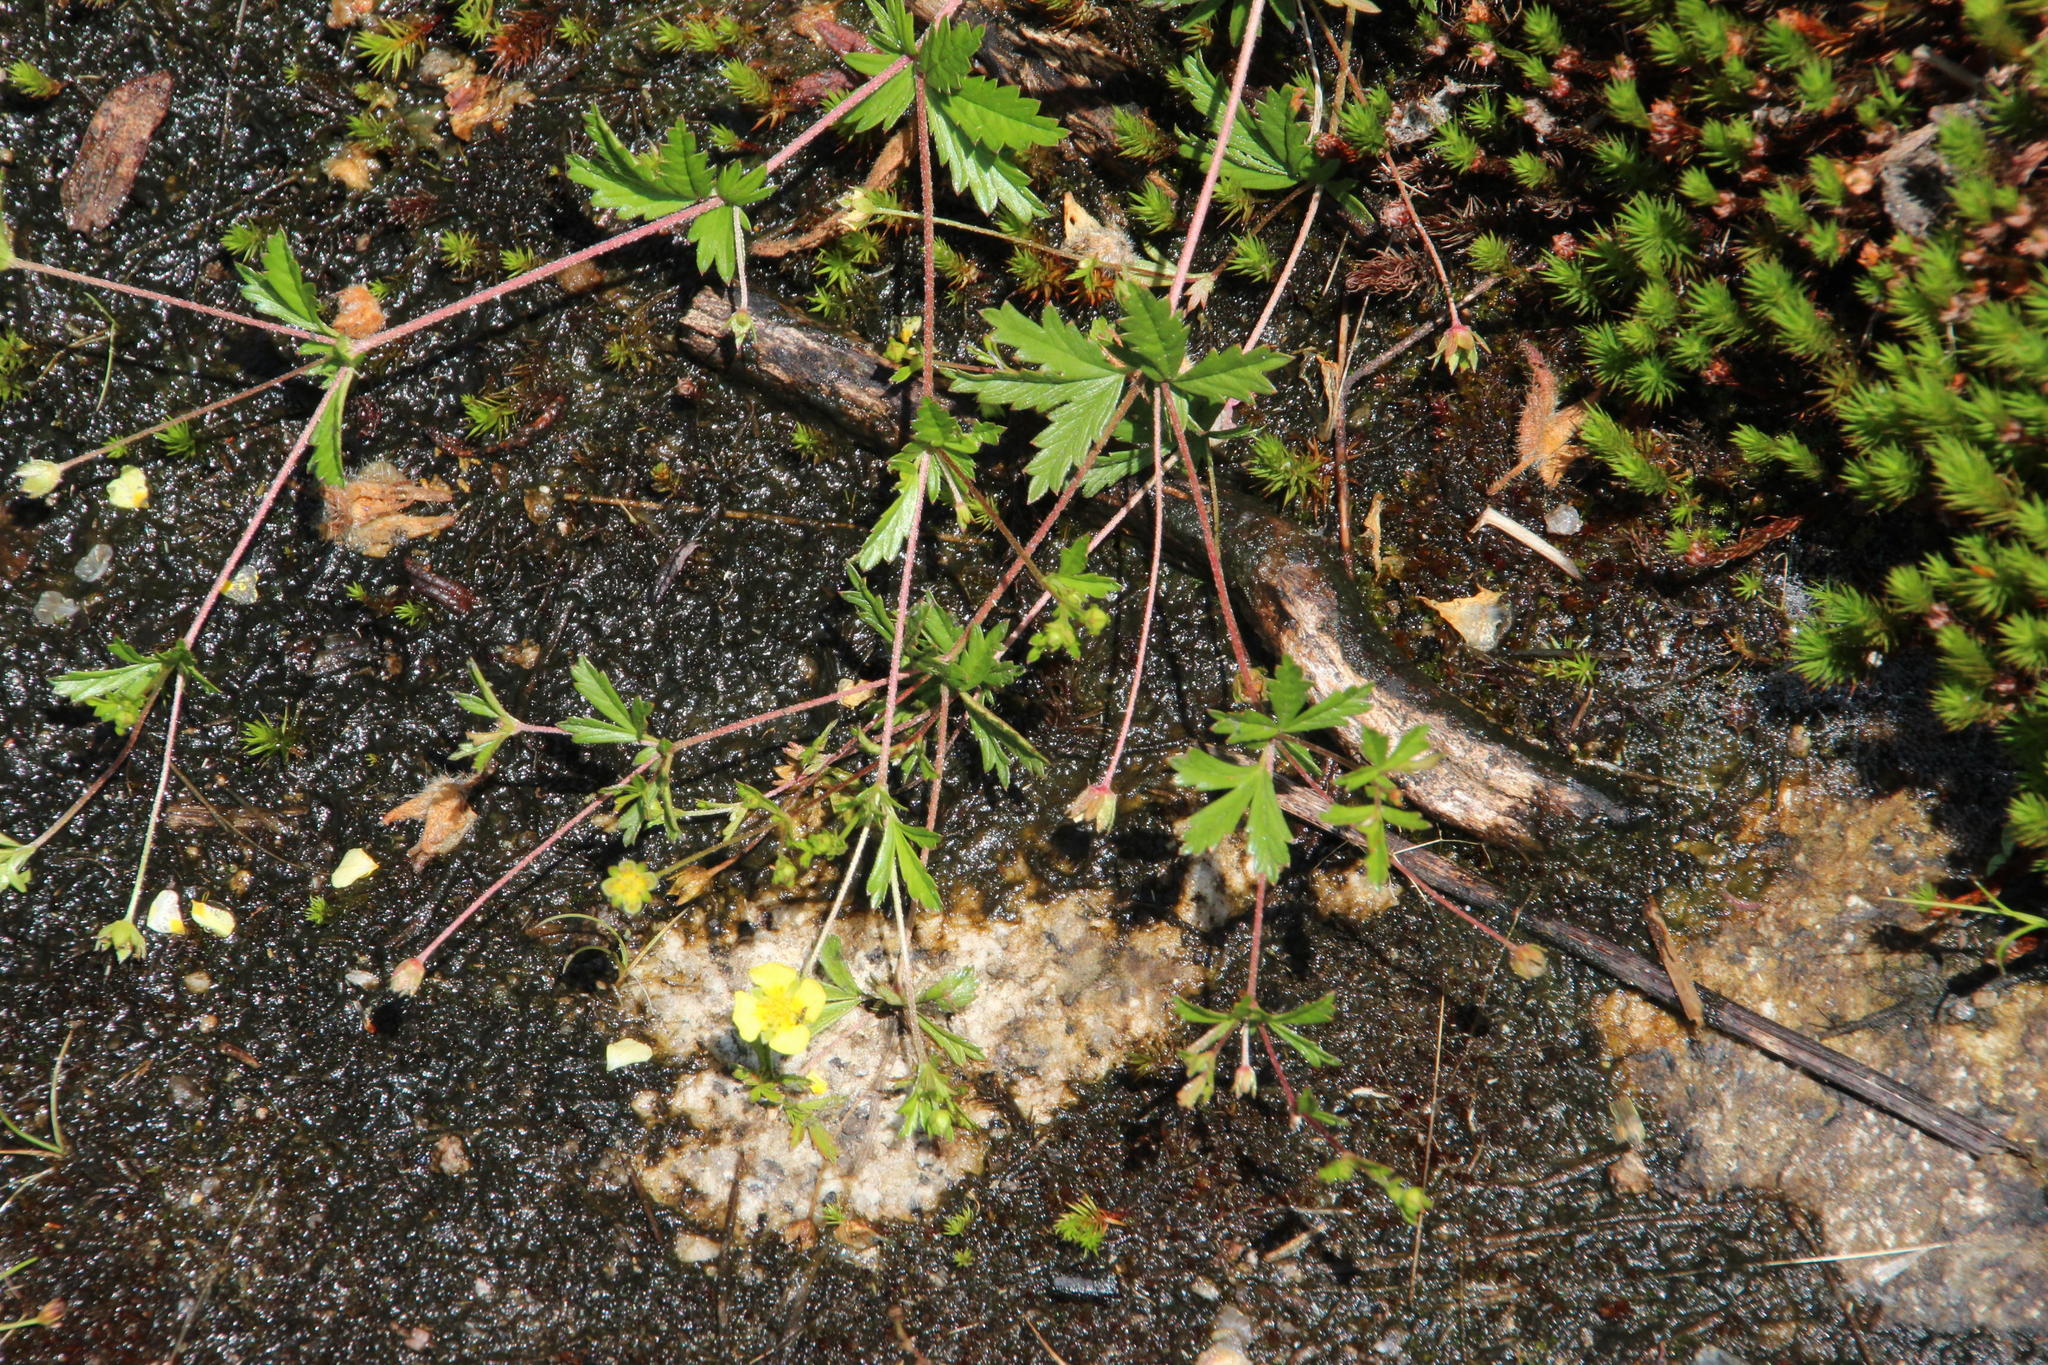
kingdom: Plantae
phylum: Tracheophyta
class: Magnoliopsida
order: Rosales
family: Rosaceae
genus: Potentilla
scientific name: Potentilla erecta
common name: Tormentil
